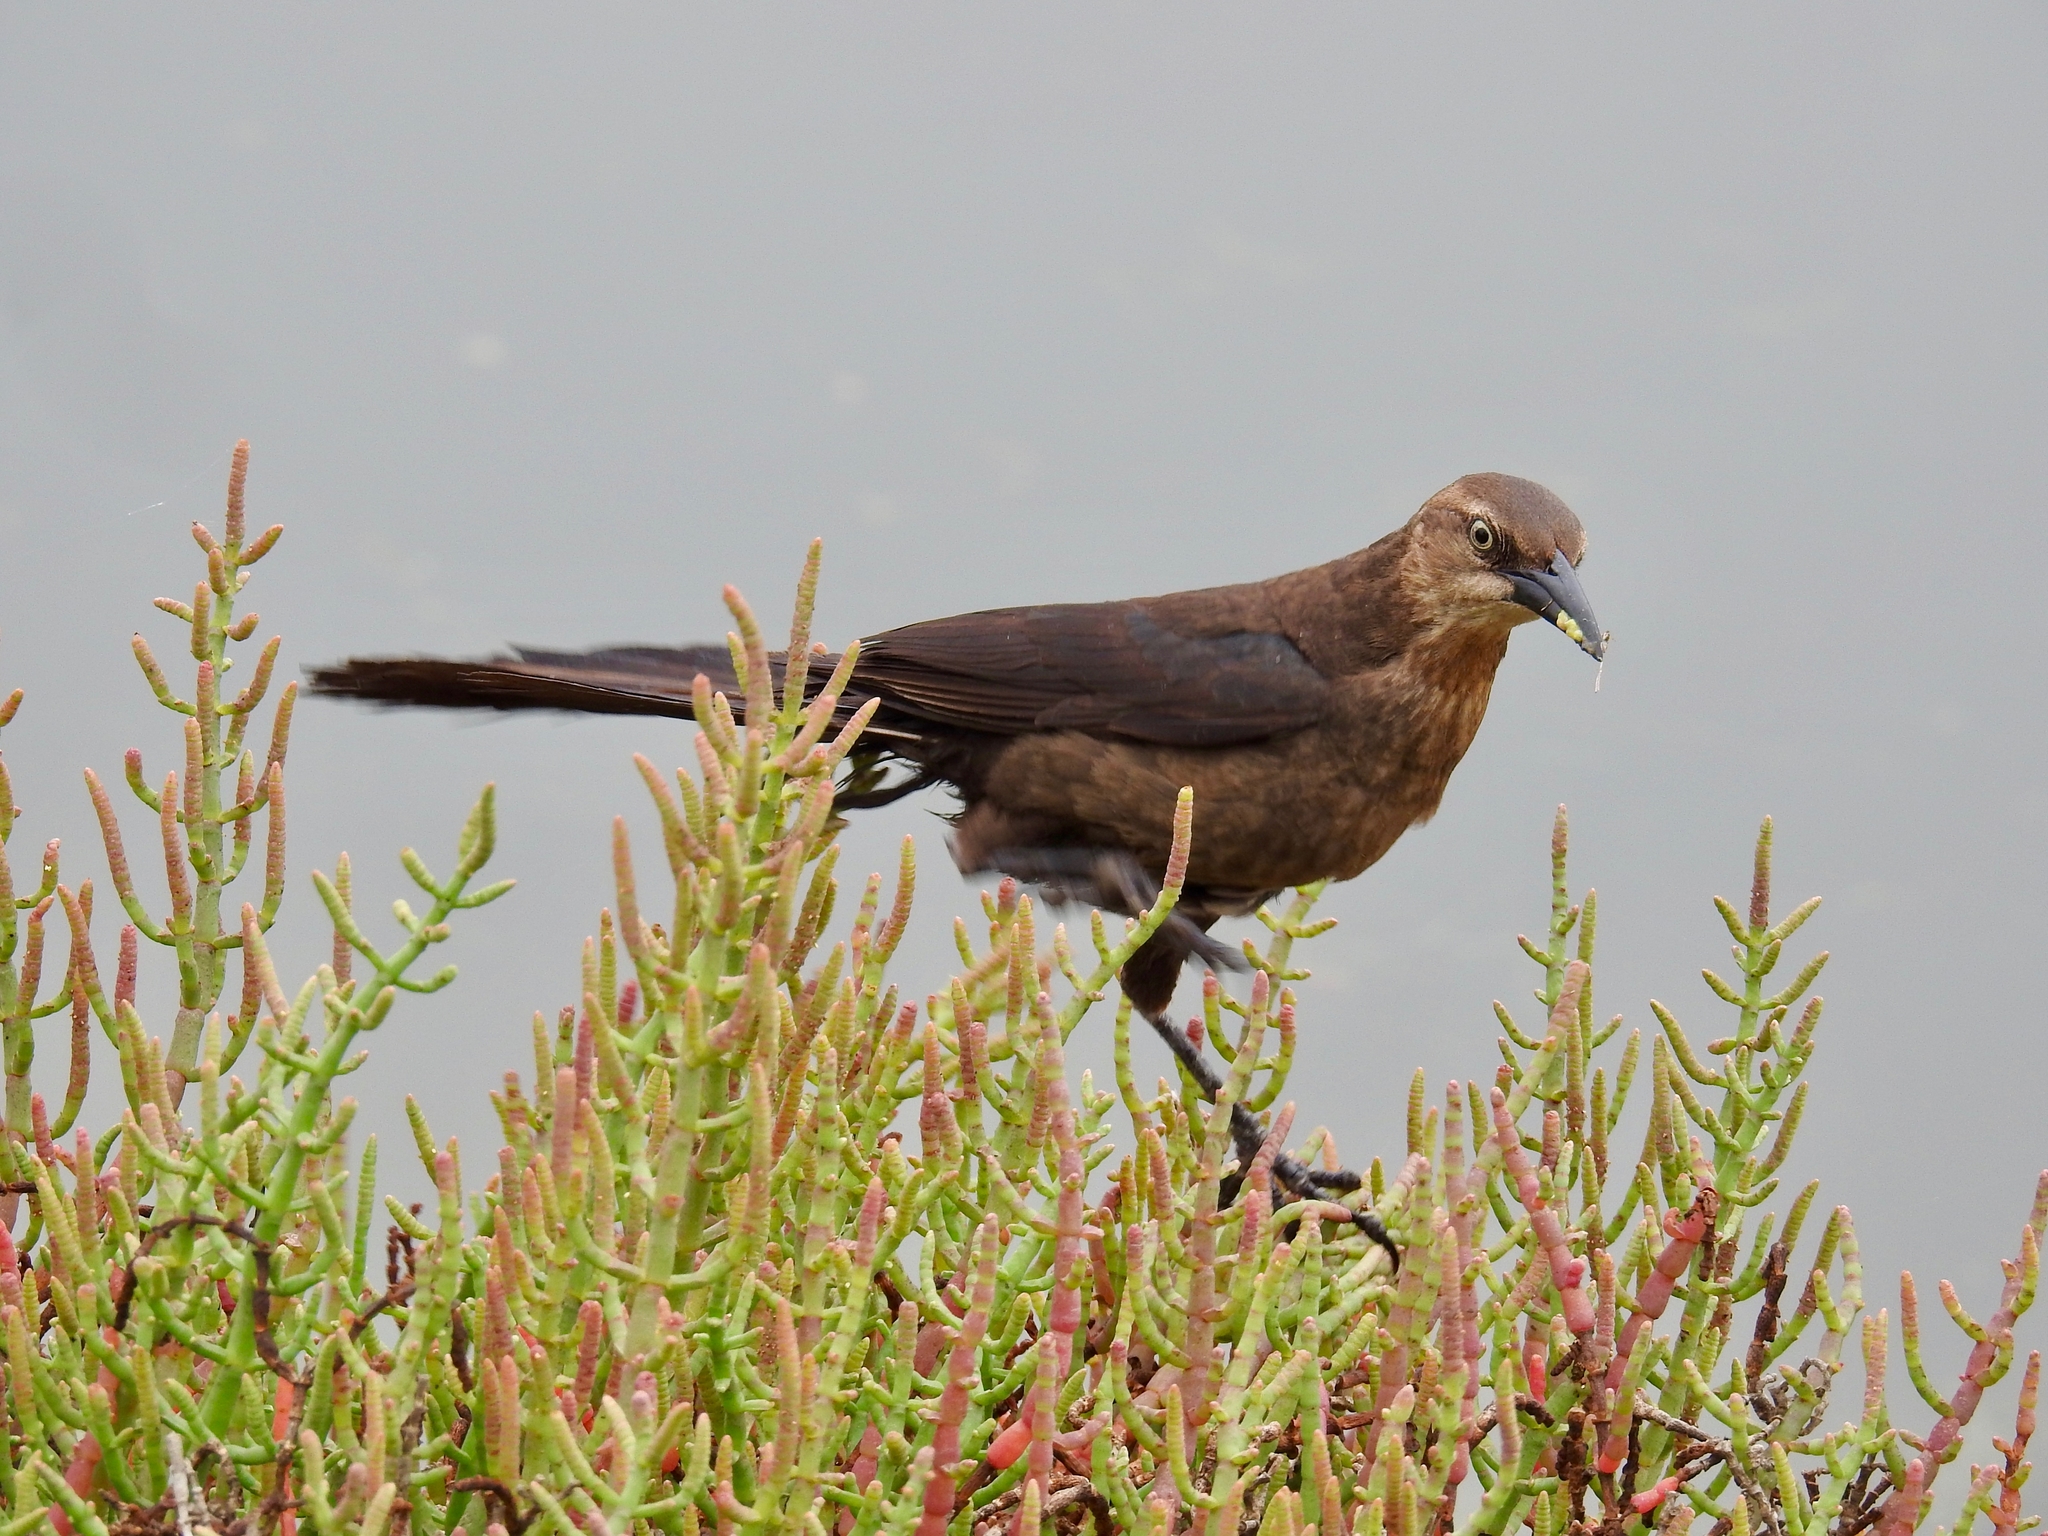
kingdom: Animalia
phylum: Chordata
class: Aves
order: Passeriformes
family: Icteridae
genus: Quiscalus
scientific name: Quiscalus mexicanus
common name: Great-tailed grackle
